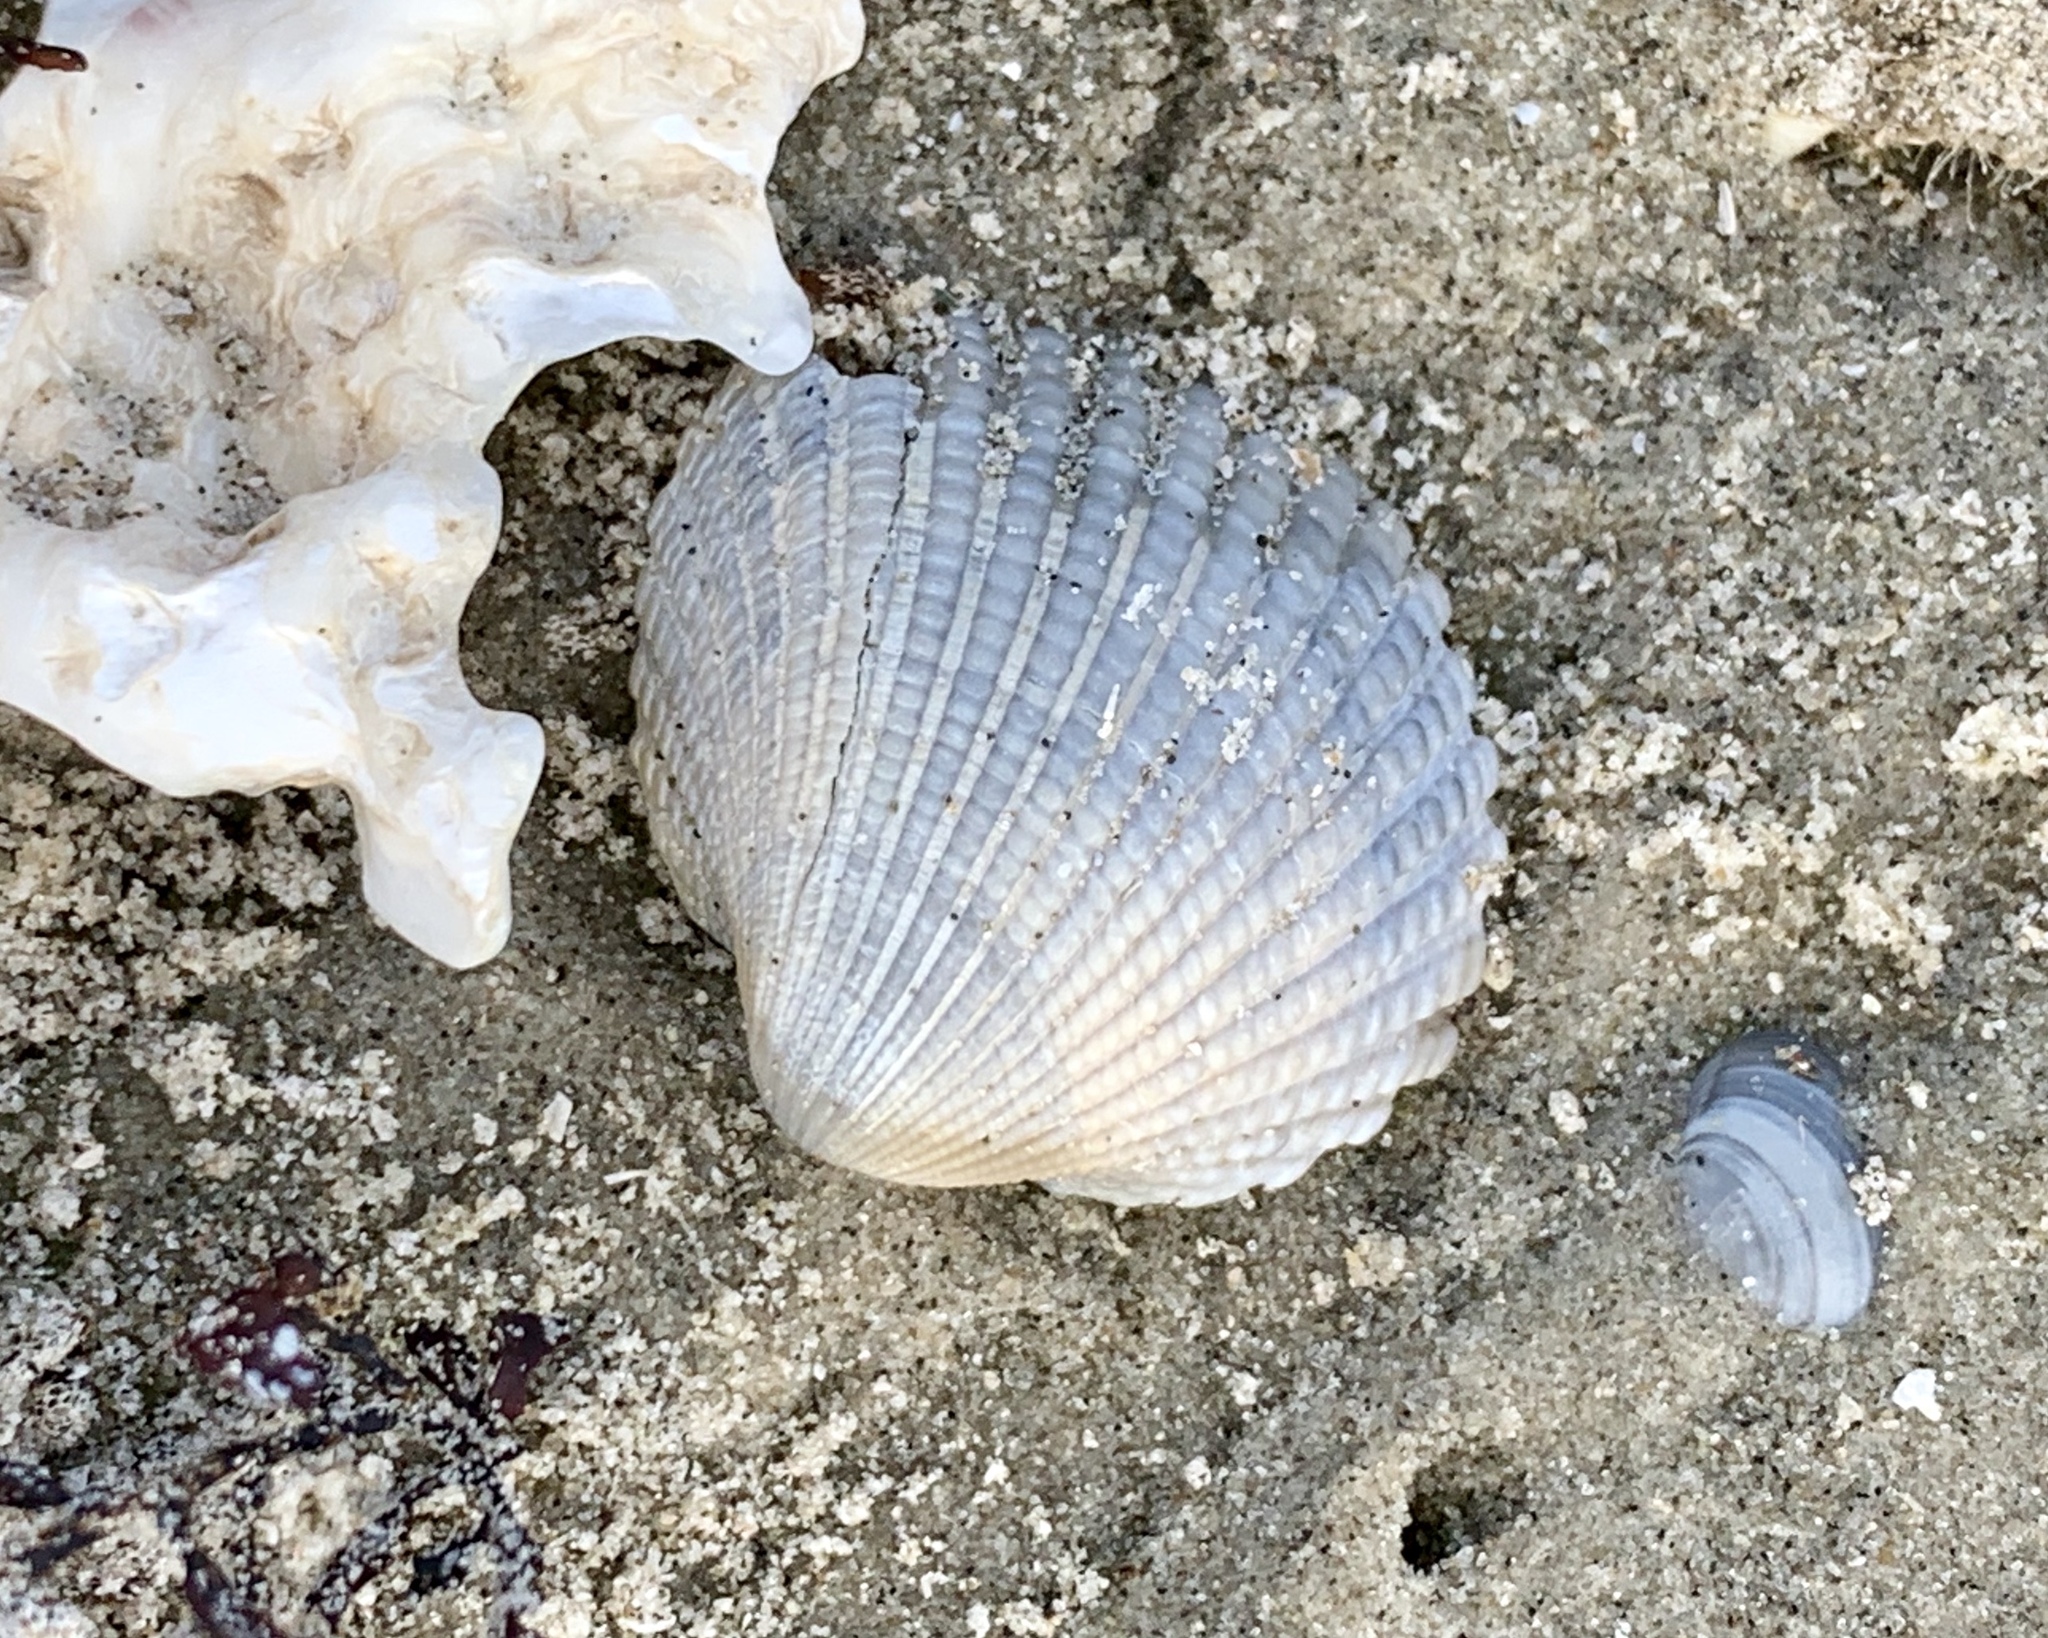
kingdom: Animalia
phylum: Mollusca
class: Bivalvia
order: Arcida
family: Arcidae
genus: Anadara
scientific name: Anadara brasiliana
